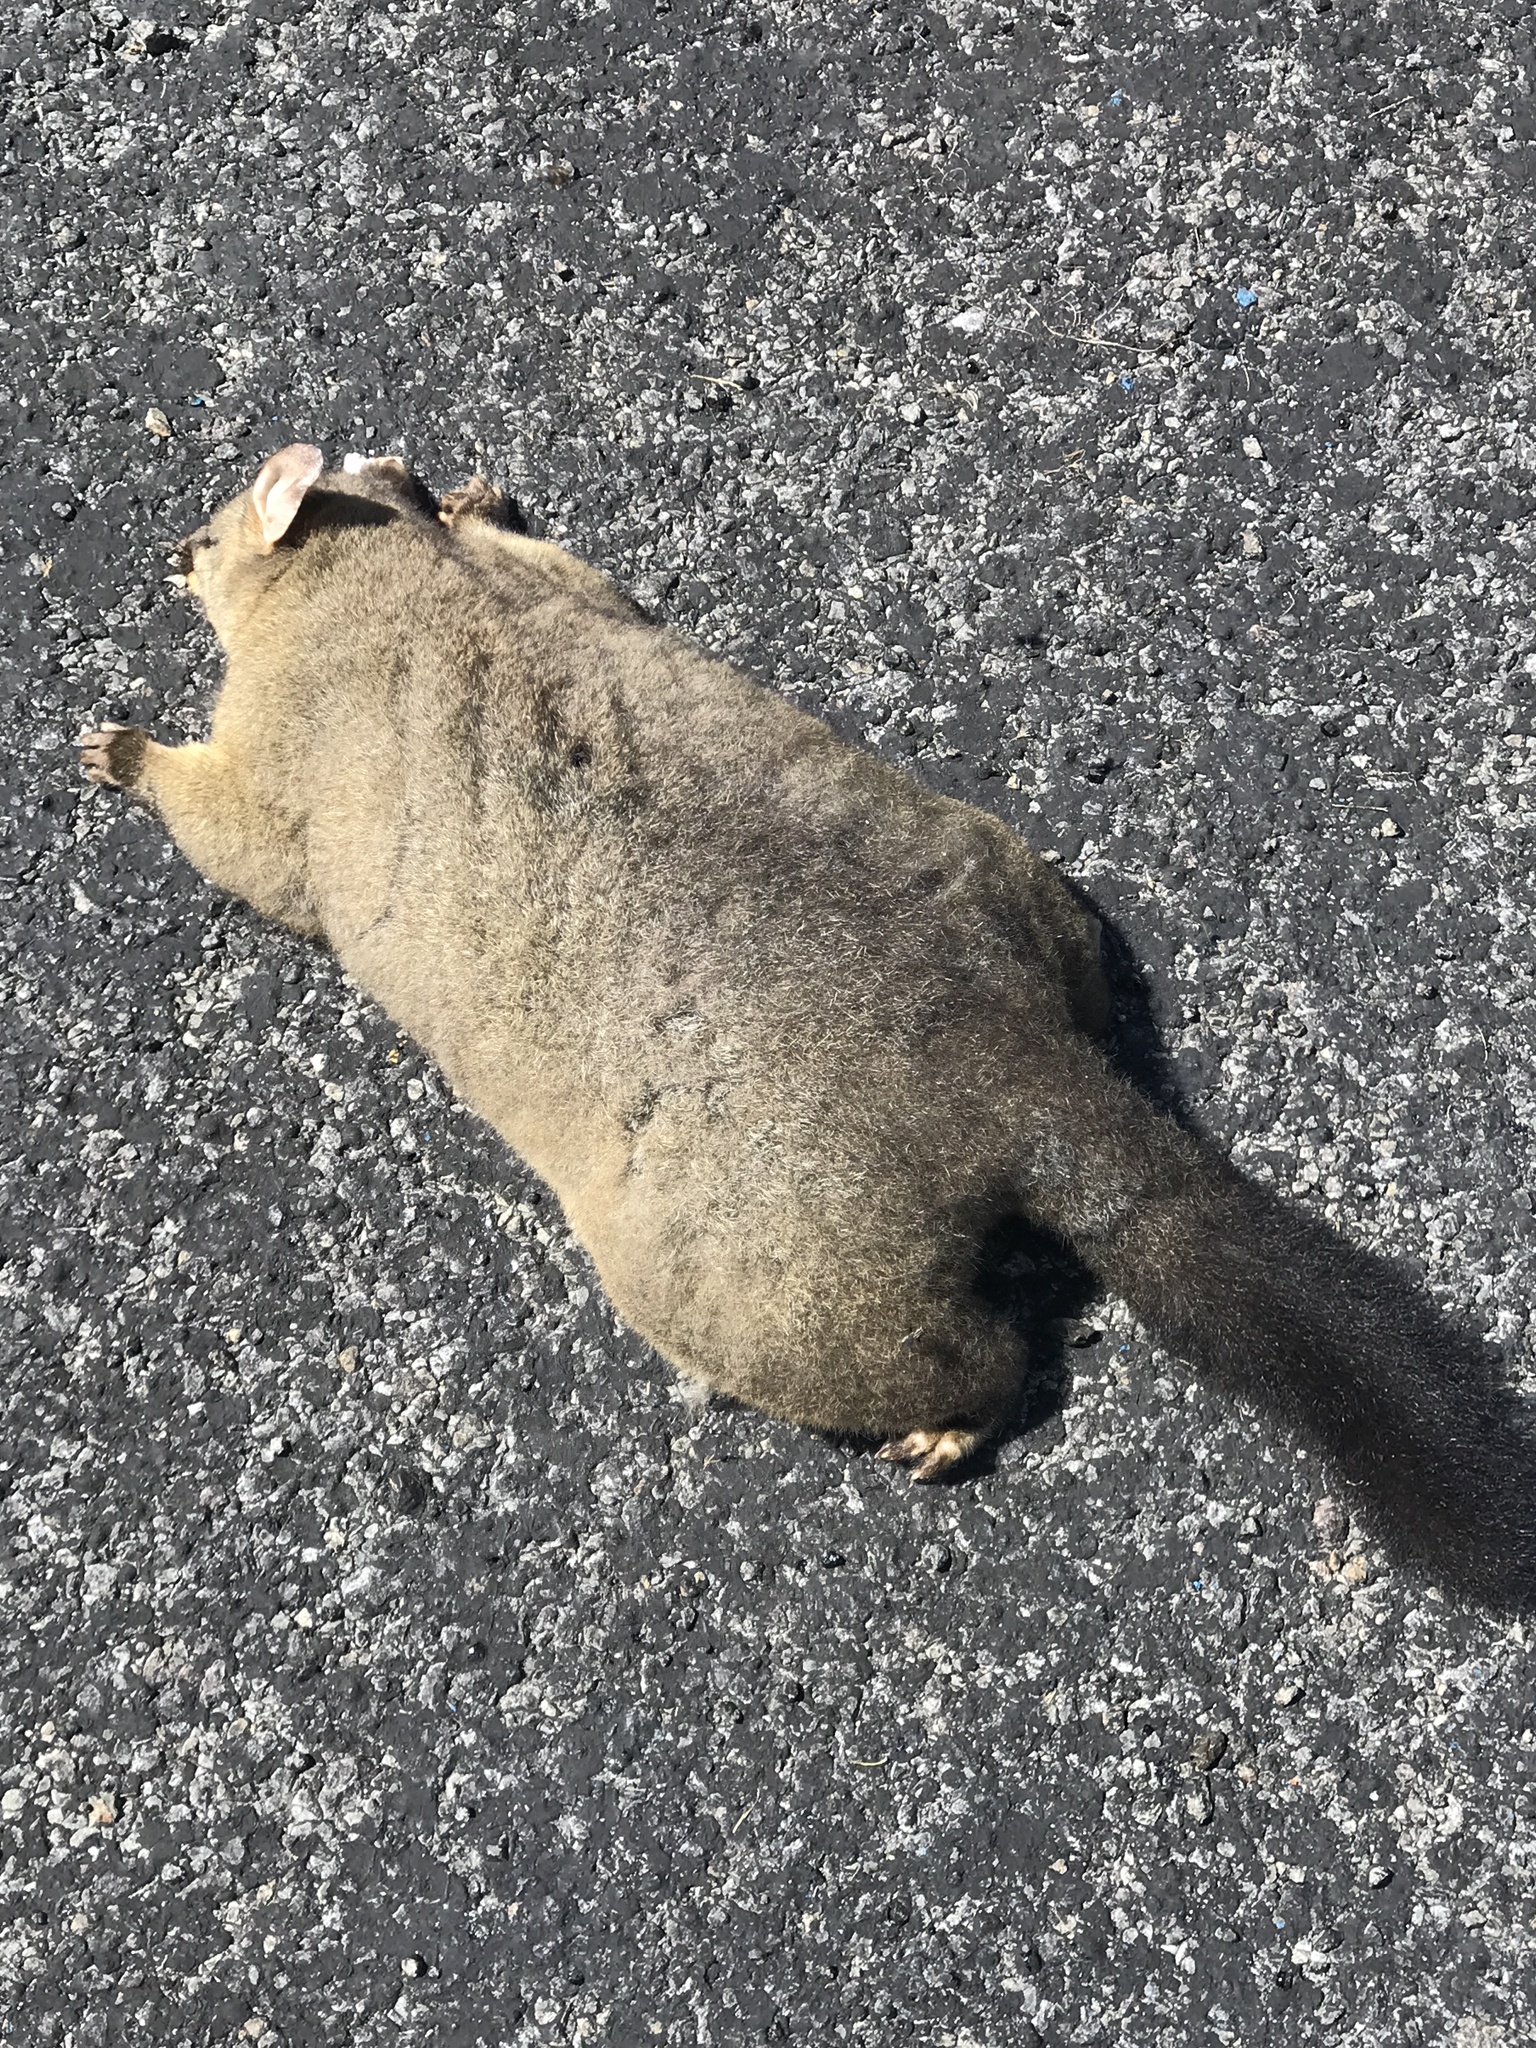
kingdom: Animalia
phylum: Chordata
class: Mammalia
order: Diprotodontia
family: Phalangeridae
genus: Trichosurus
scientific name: Trichosurus vulpecula
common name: Common brushtail
